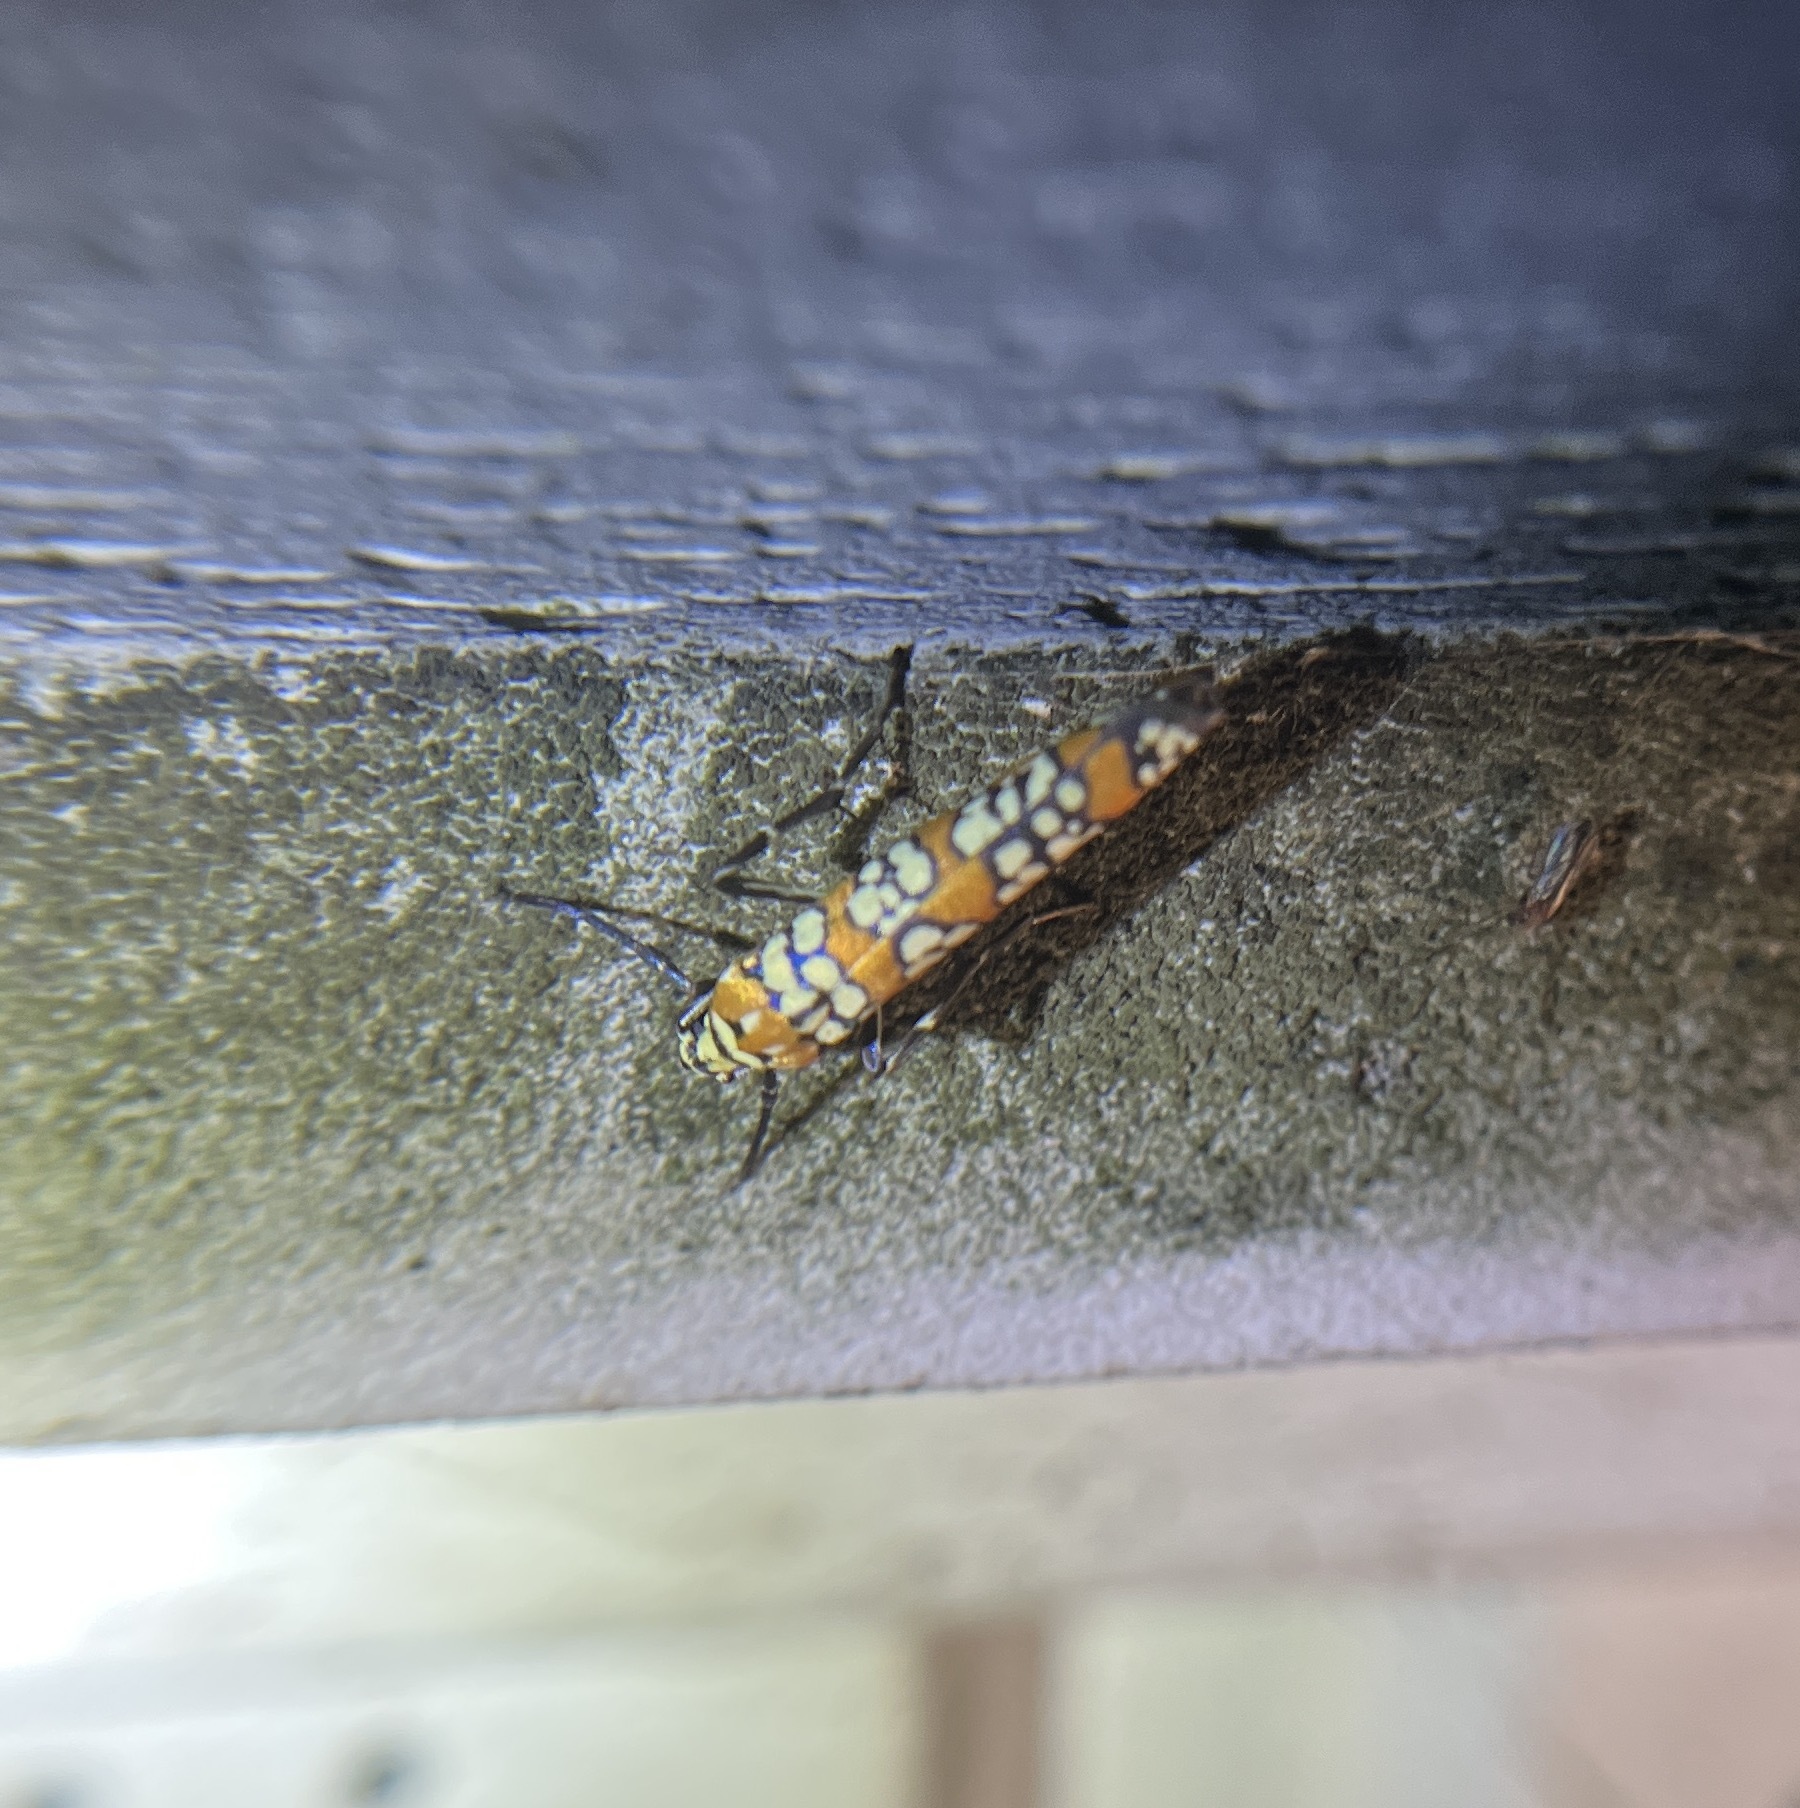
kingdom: Animalia
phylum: Arthropoda
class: Insecta
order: Lepidoptera
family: Attevidae
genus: Atteva
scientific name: Atteva punctella
